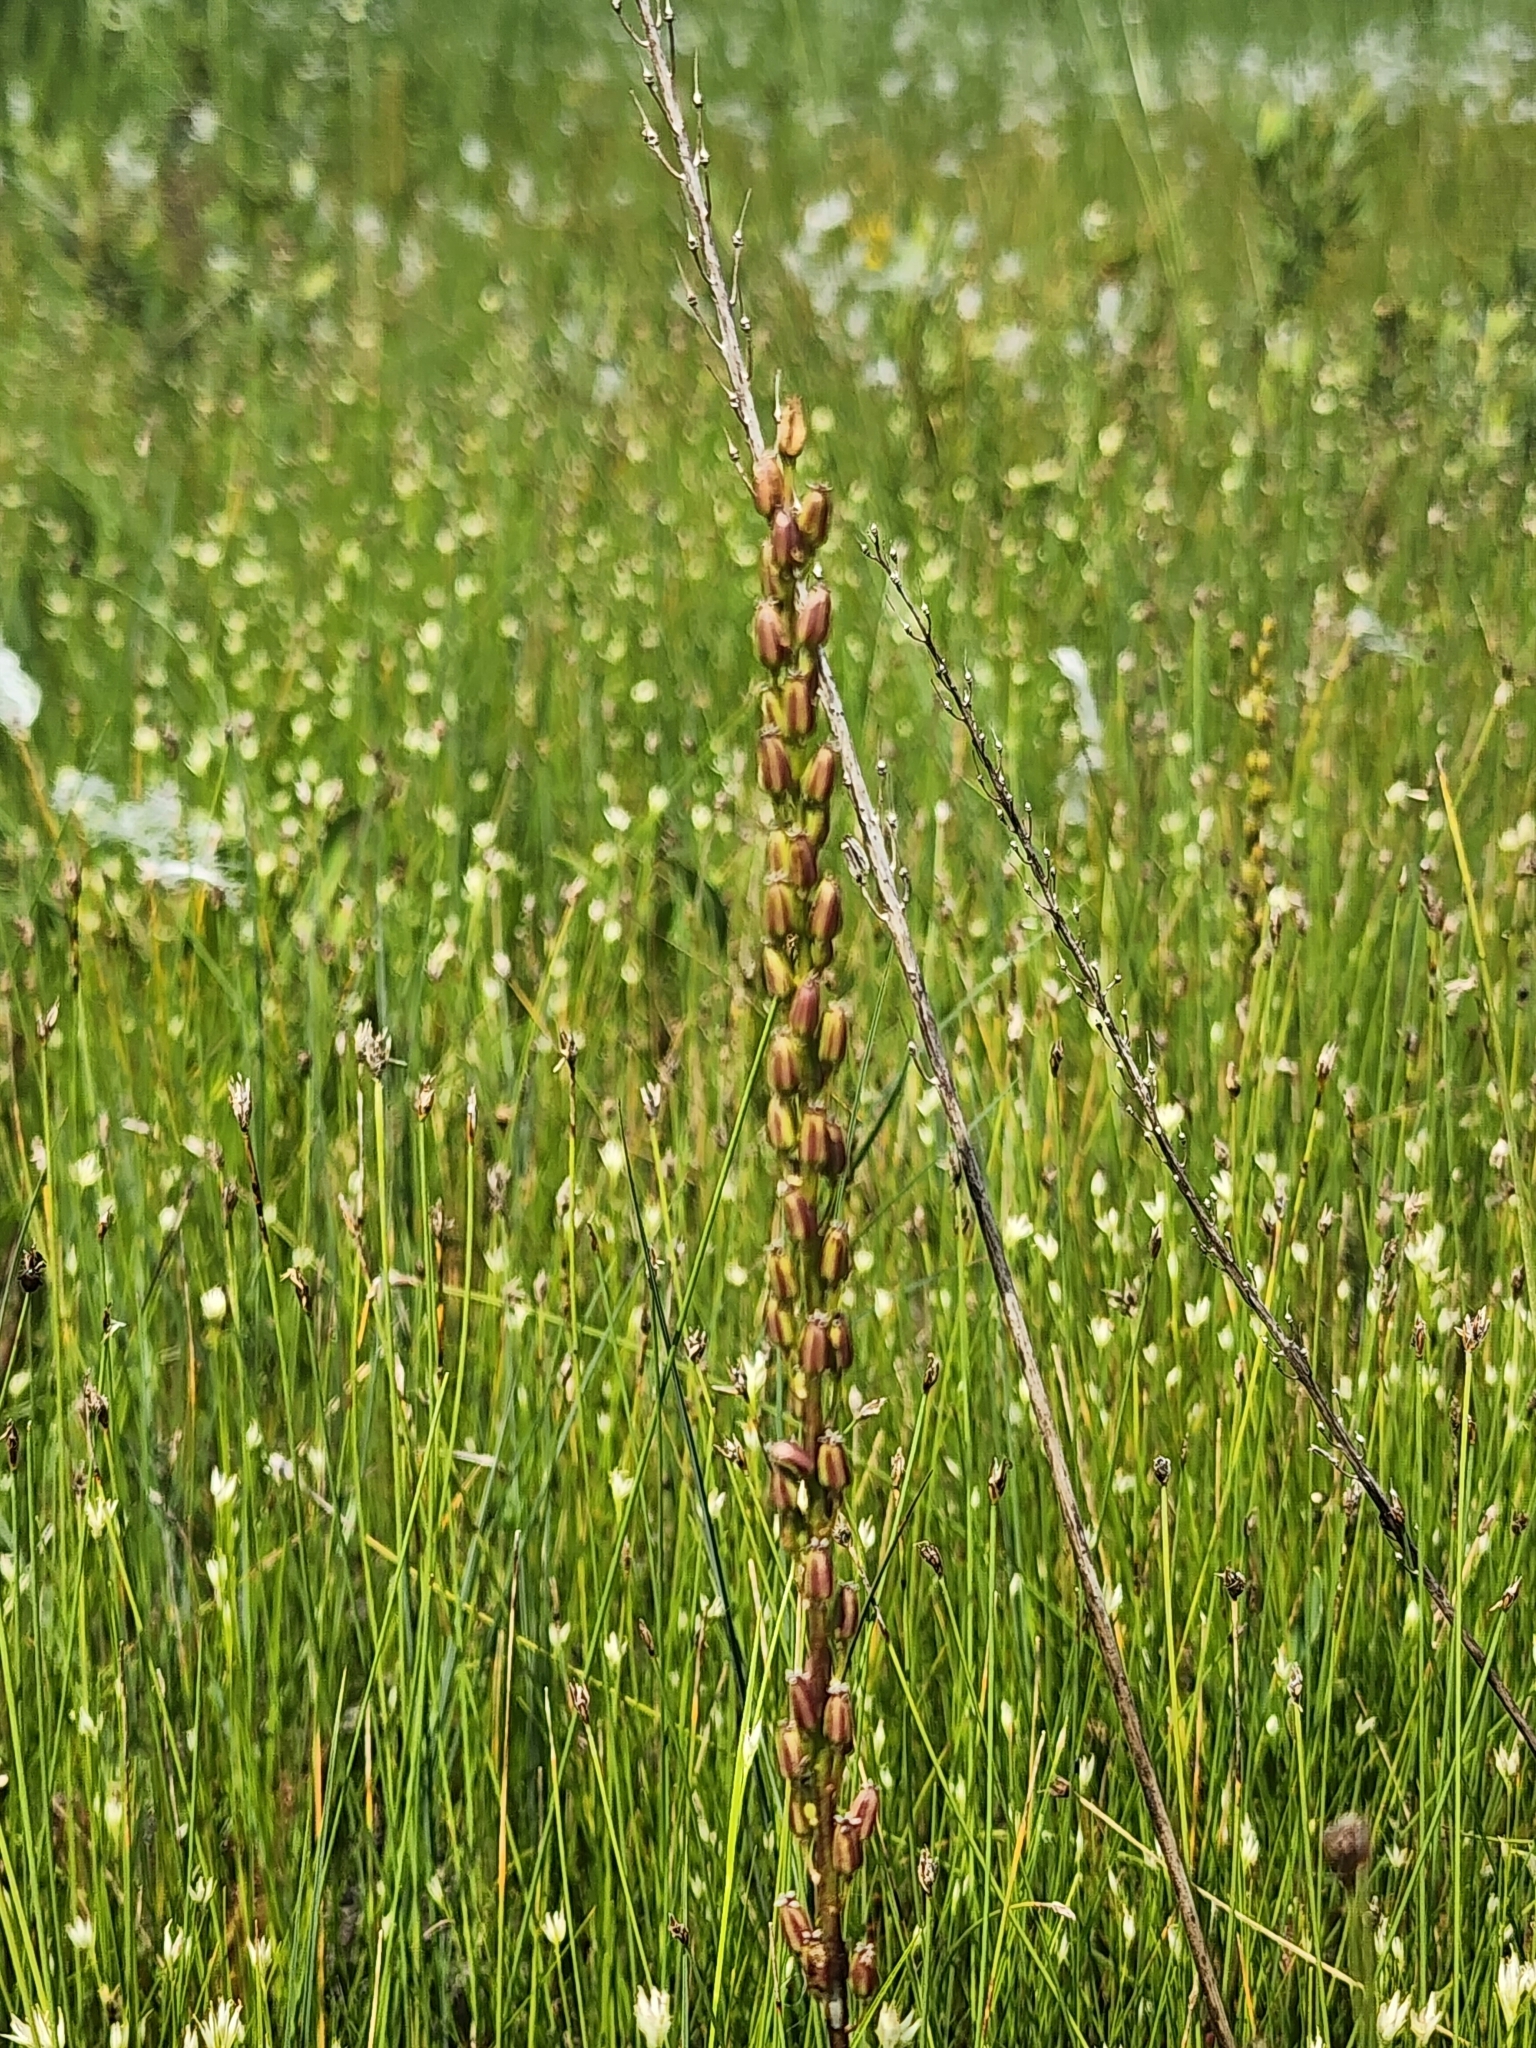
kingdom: Plantae
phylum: Tracheophyta
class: Liliopsida
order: Alismatales
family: Juncaginaceae
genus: Triglochin
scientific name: Triglochin maritima
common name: Sea arrowgrass
